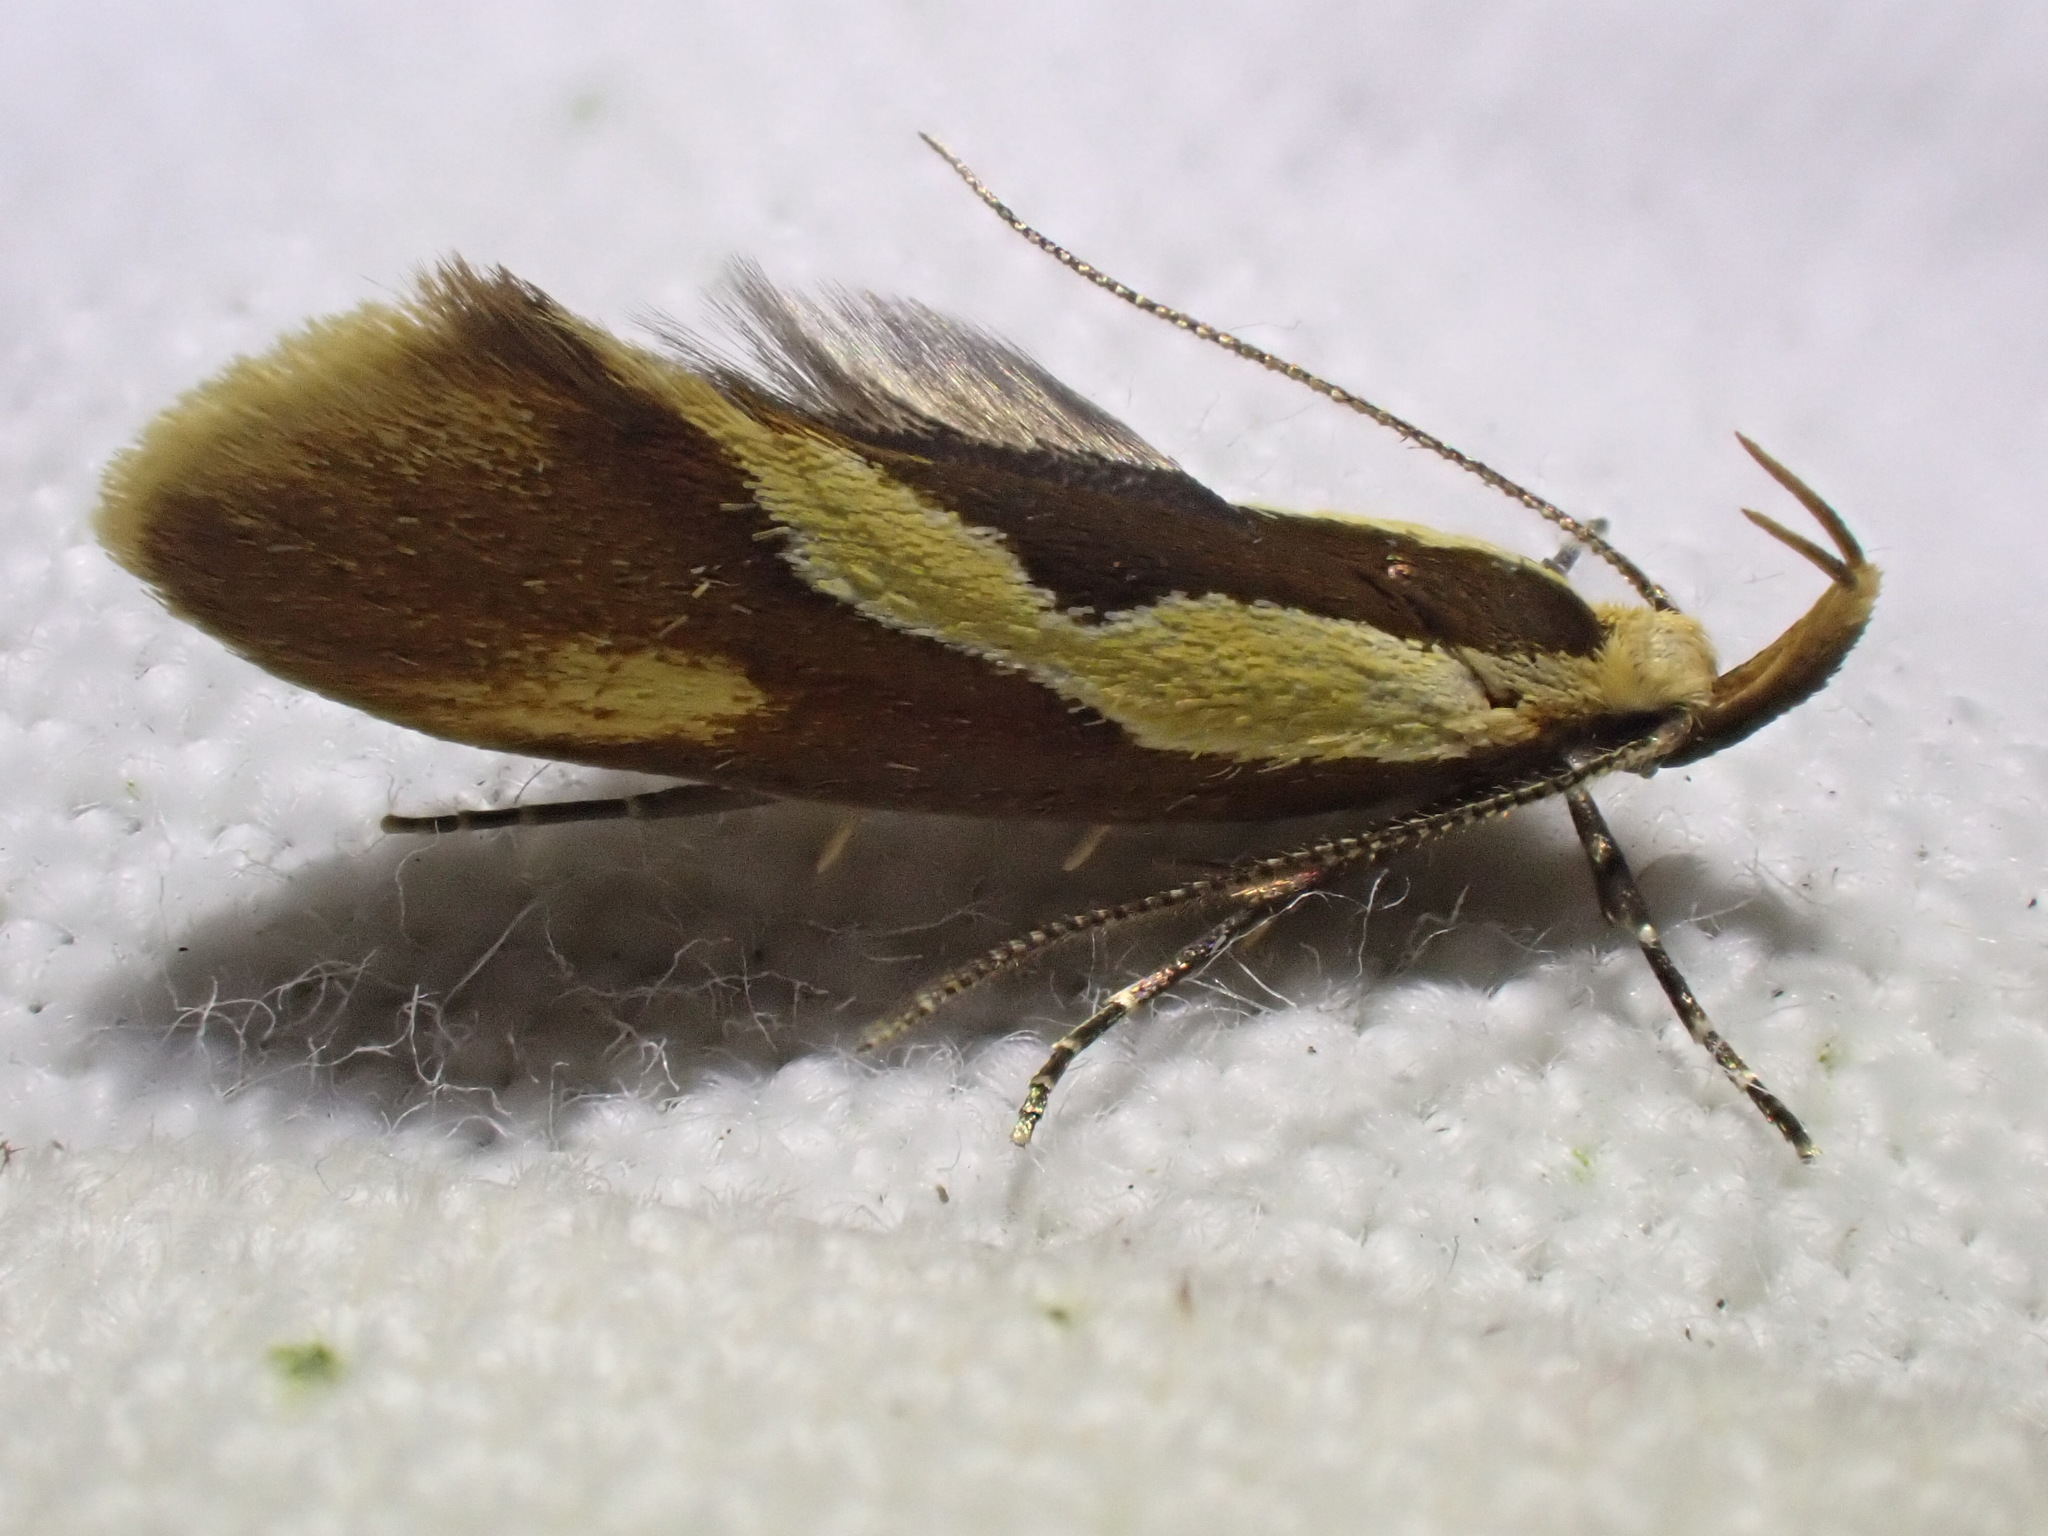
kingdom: Animalia
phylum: Arthropoda
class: Insecta
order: Lepidoptera
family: Oecophoridae
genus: Harpella
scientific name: Harpella forficella
